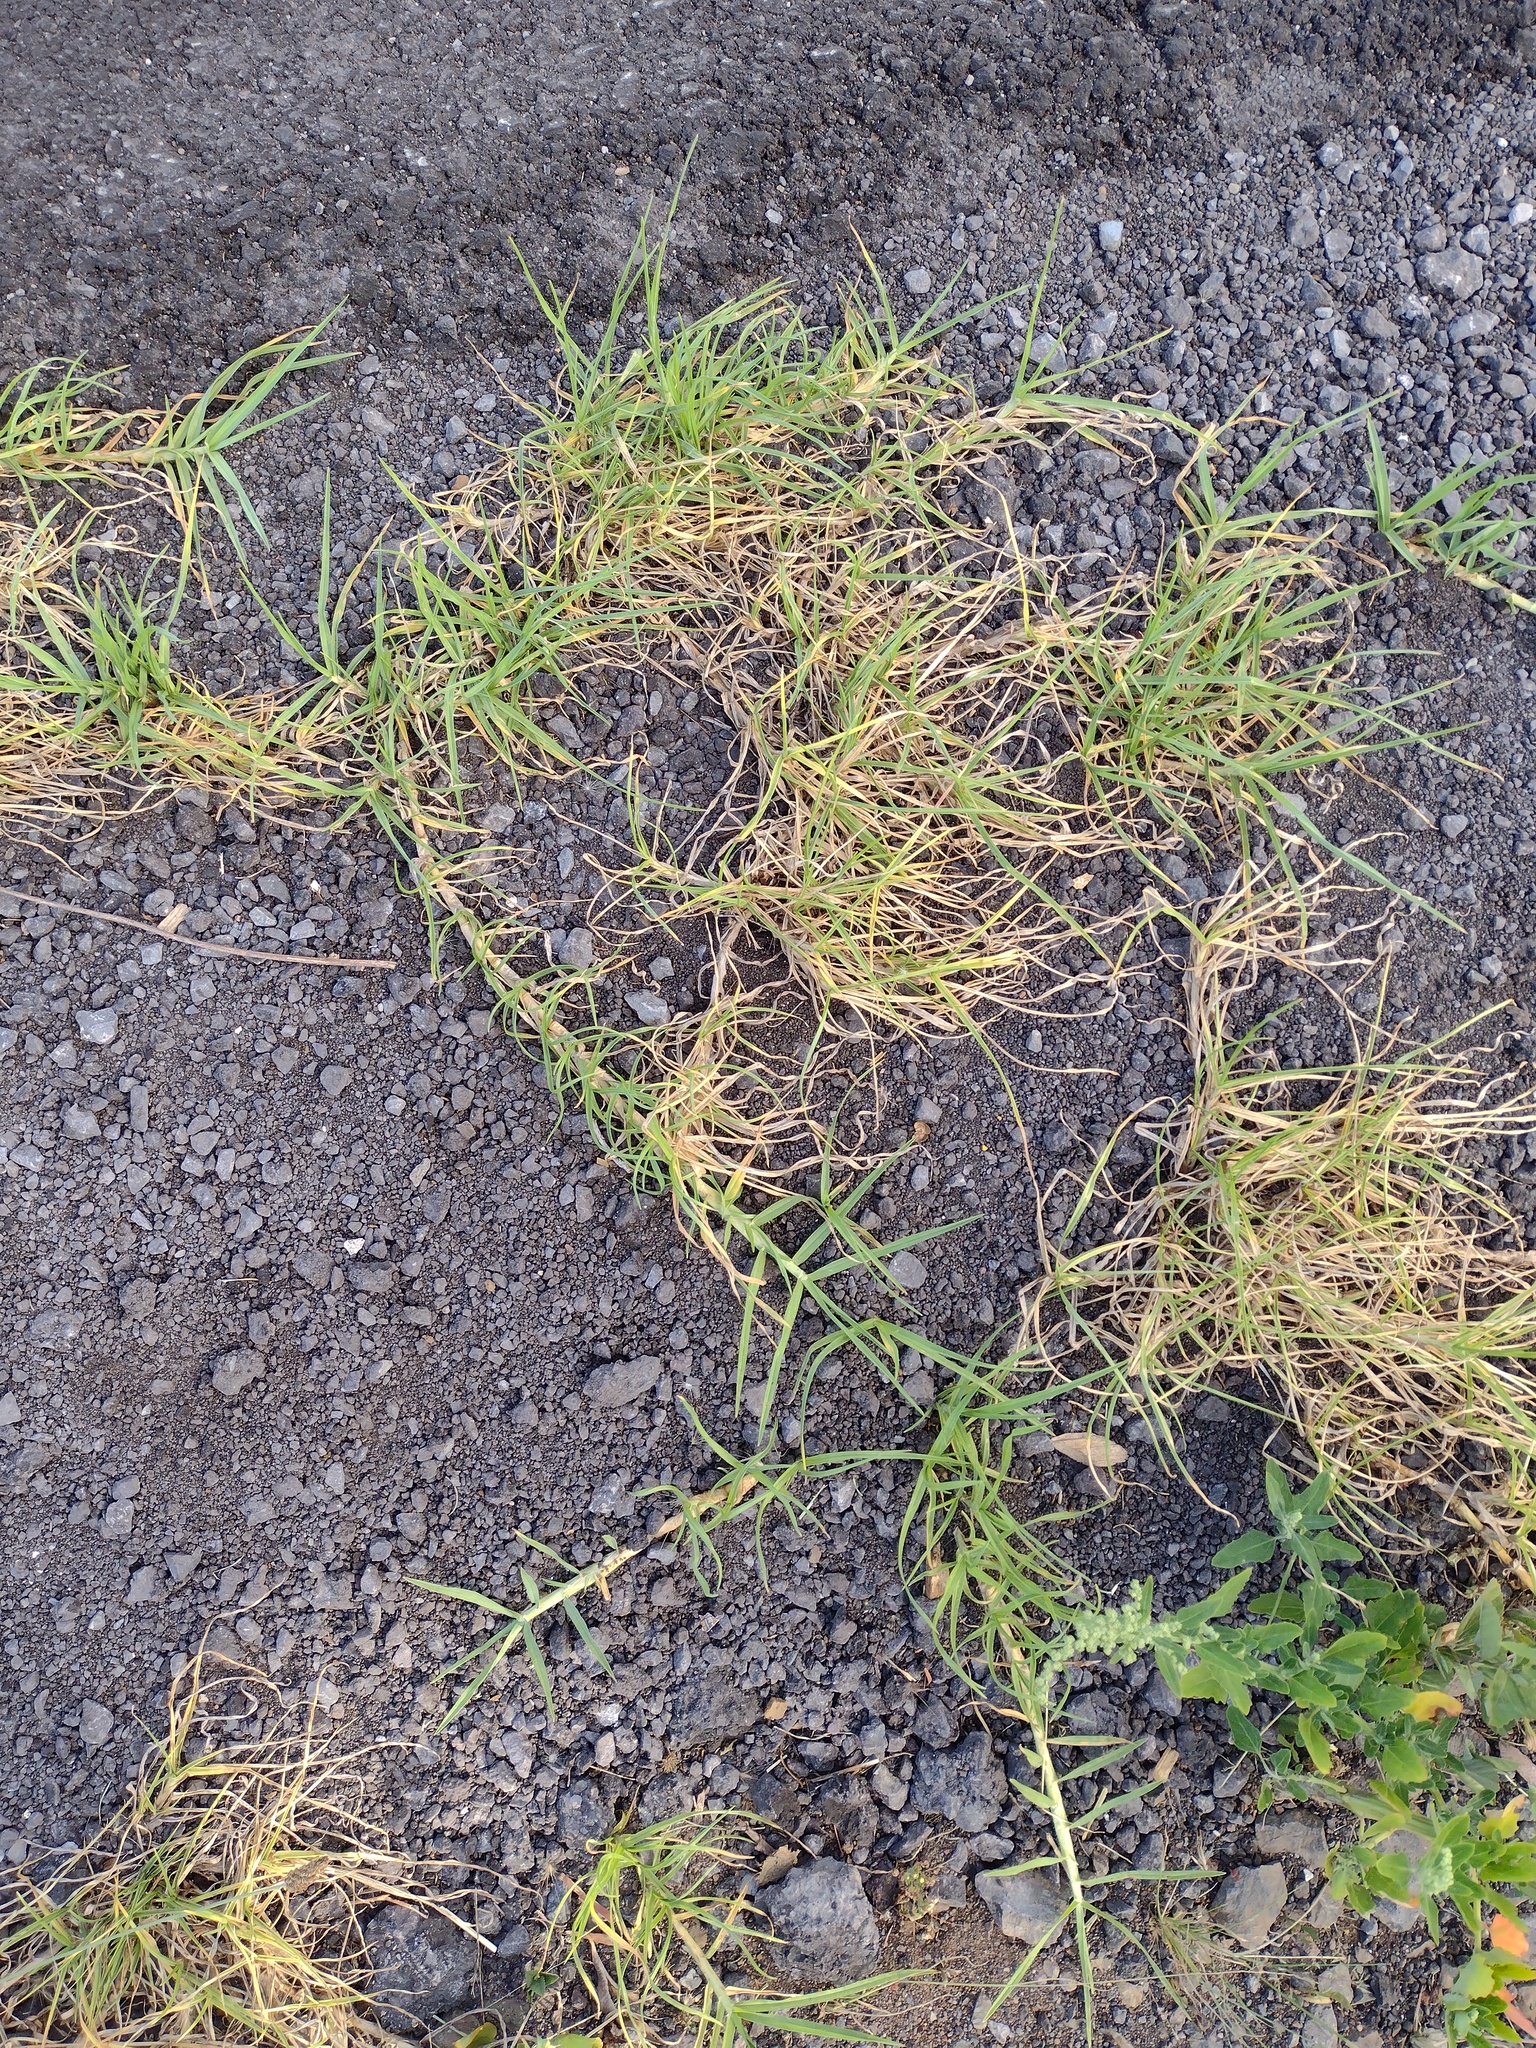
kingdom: Plantae
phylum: Tracheophyta
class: Liliopsida
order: Poales
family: Poaceae
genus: Cenchrus
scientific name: Cenchrus clandestinus
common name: Kikuyugrass
